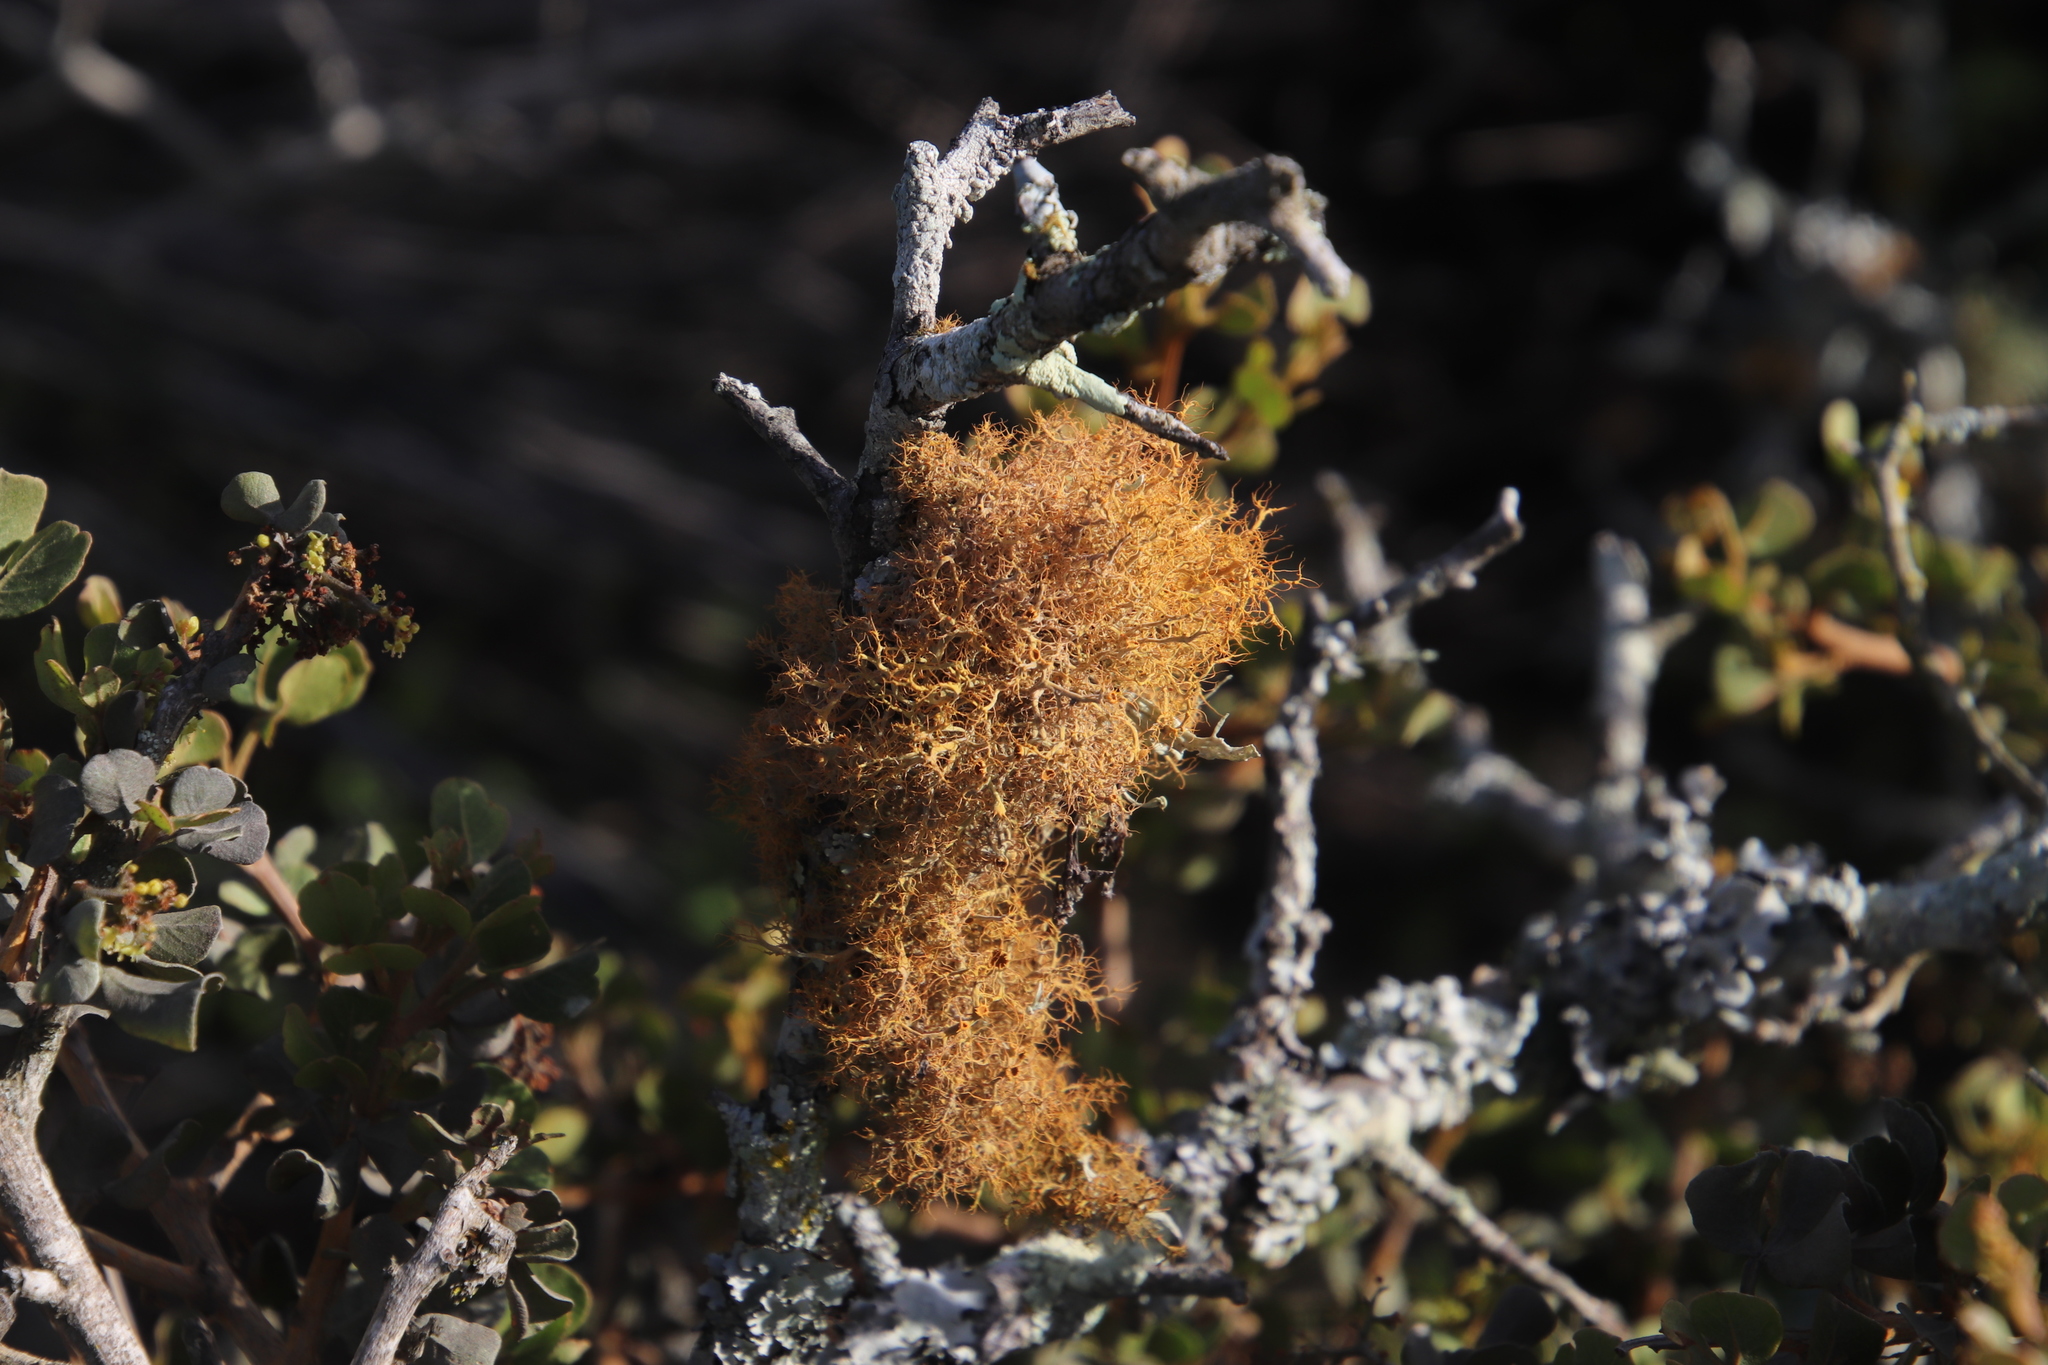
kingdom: Fungi
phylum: Ascomycota
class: Lecanoromycetes
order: Teloschistales
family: Teloschistaceae
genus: Teloschistes
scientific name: Teloschistes capensis
